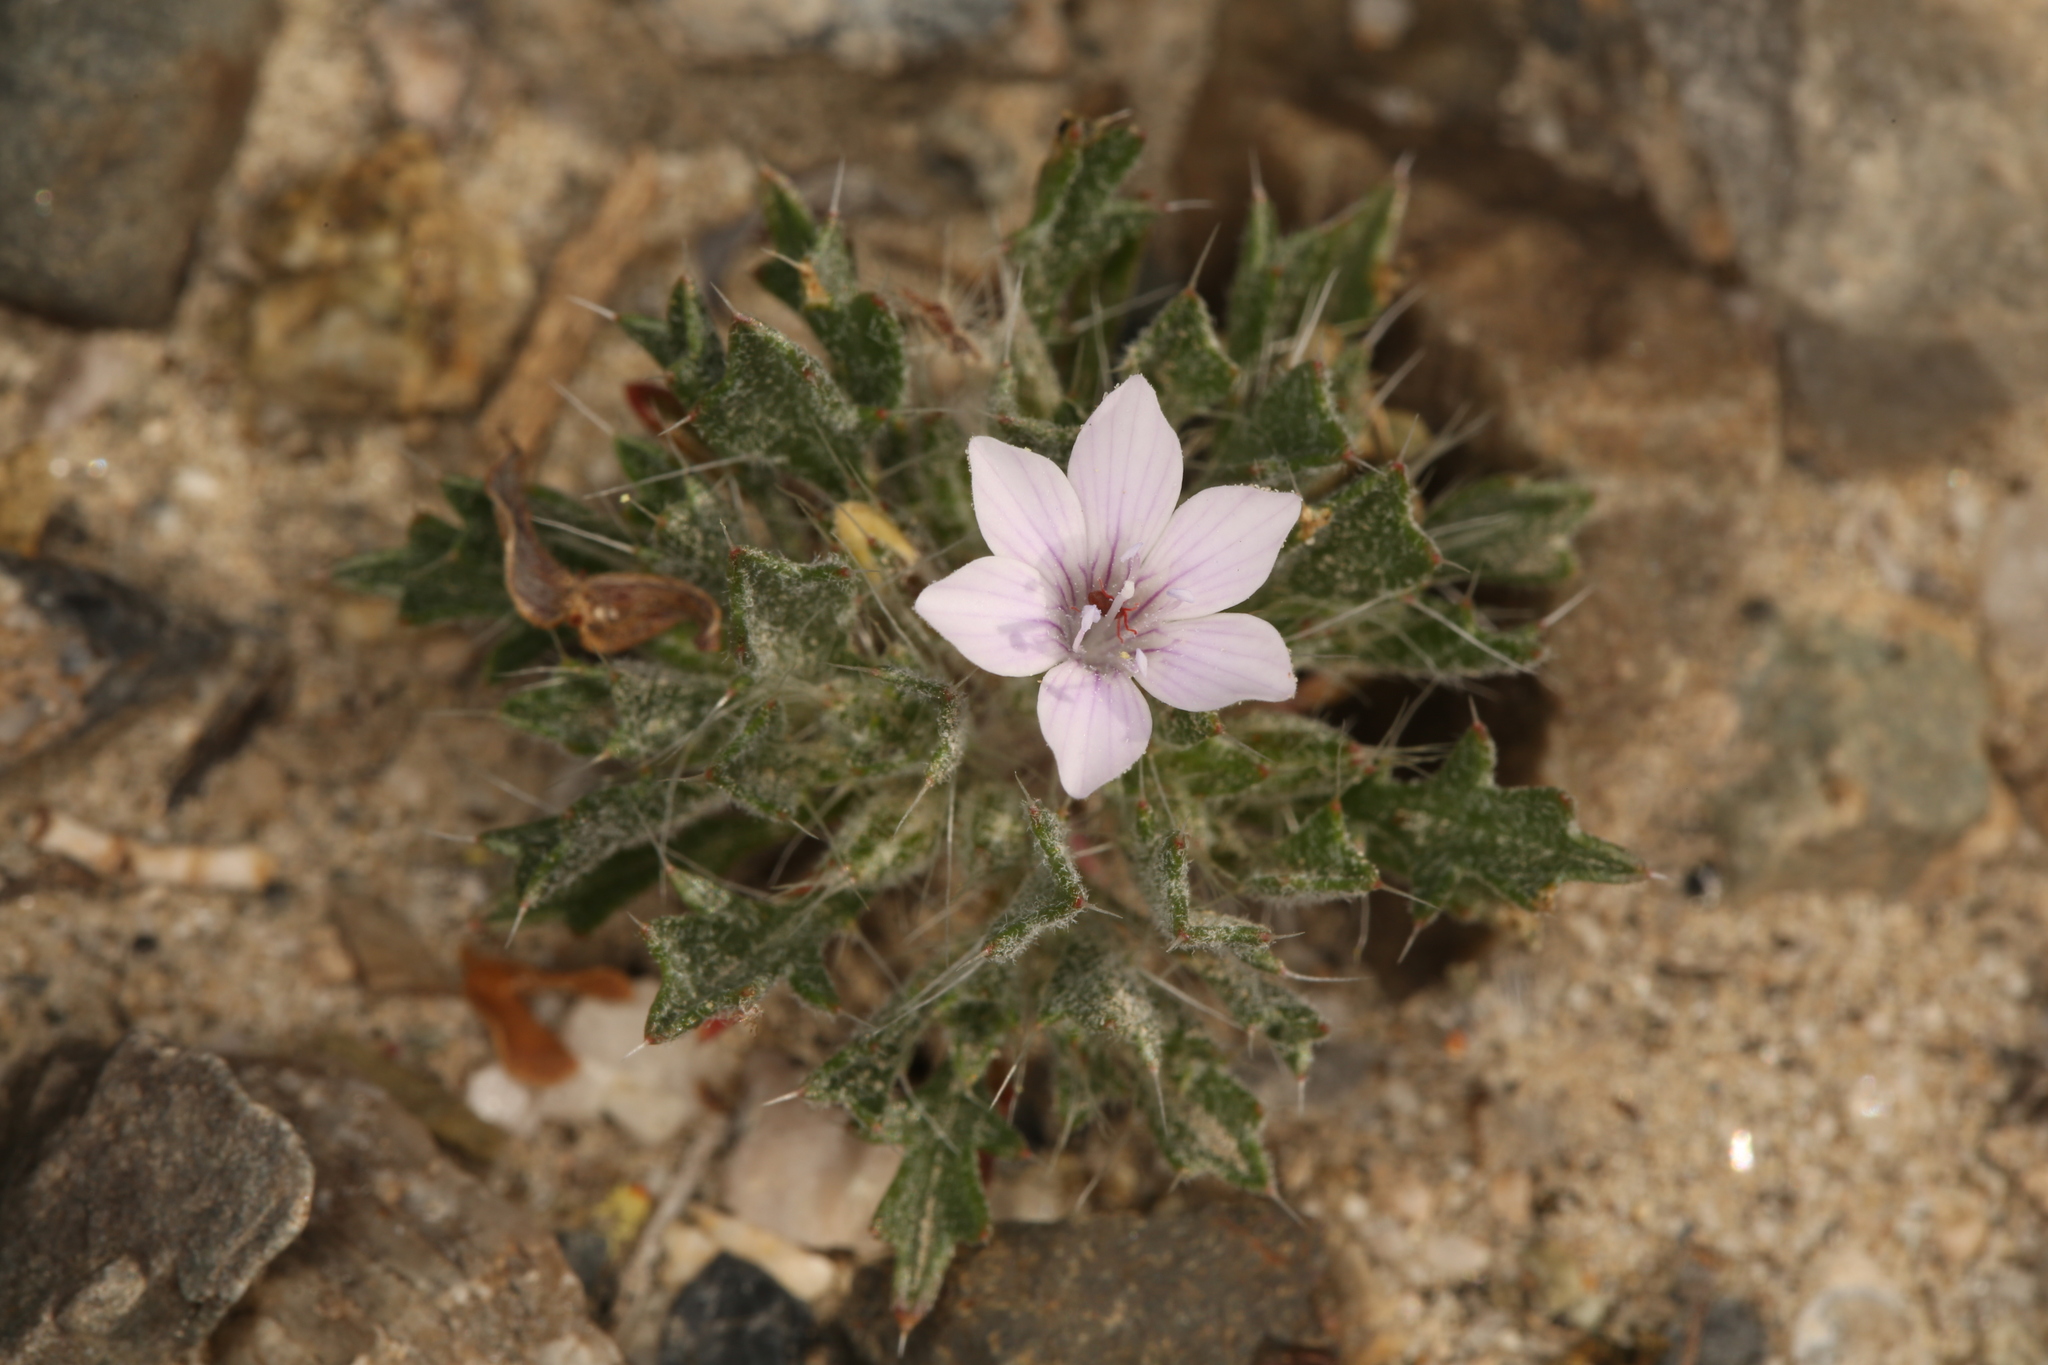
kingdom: Plantae
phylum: Tracheophyta
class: Magnoliopsida
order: Ericales
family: Polemoniaceae
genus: Langloisia
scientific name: Langloisia setosissima
